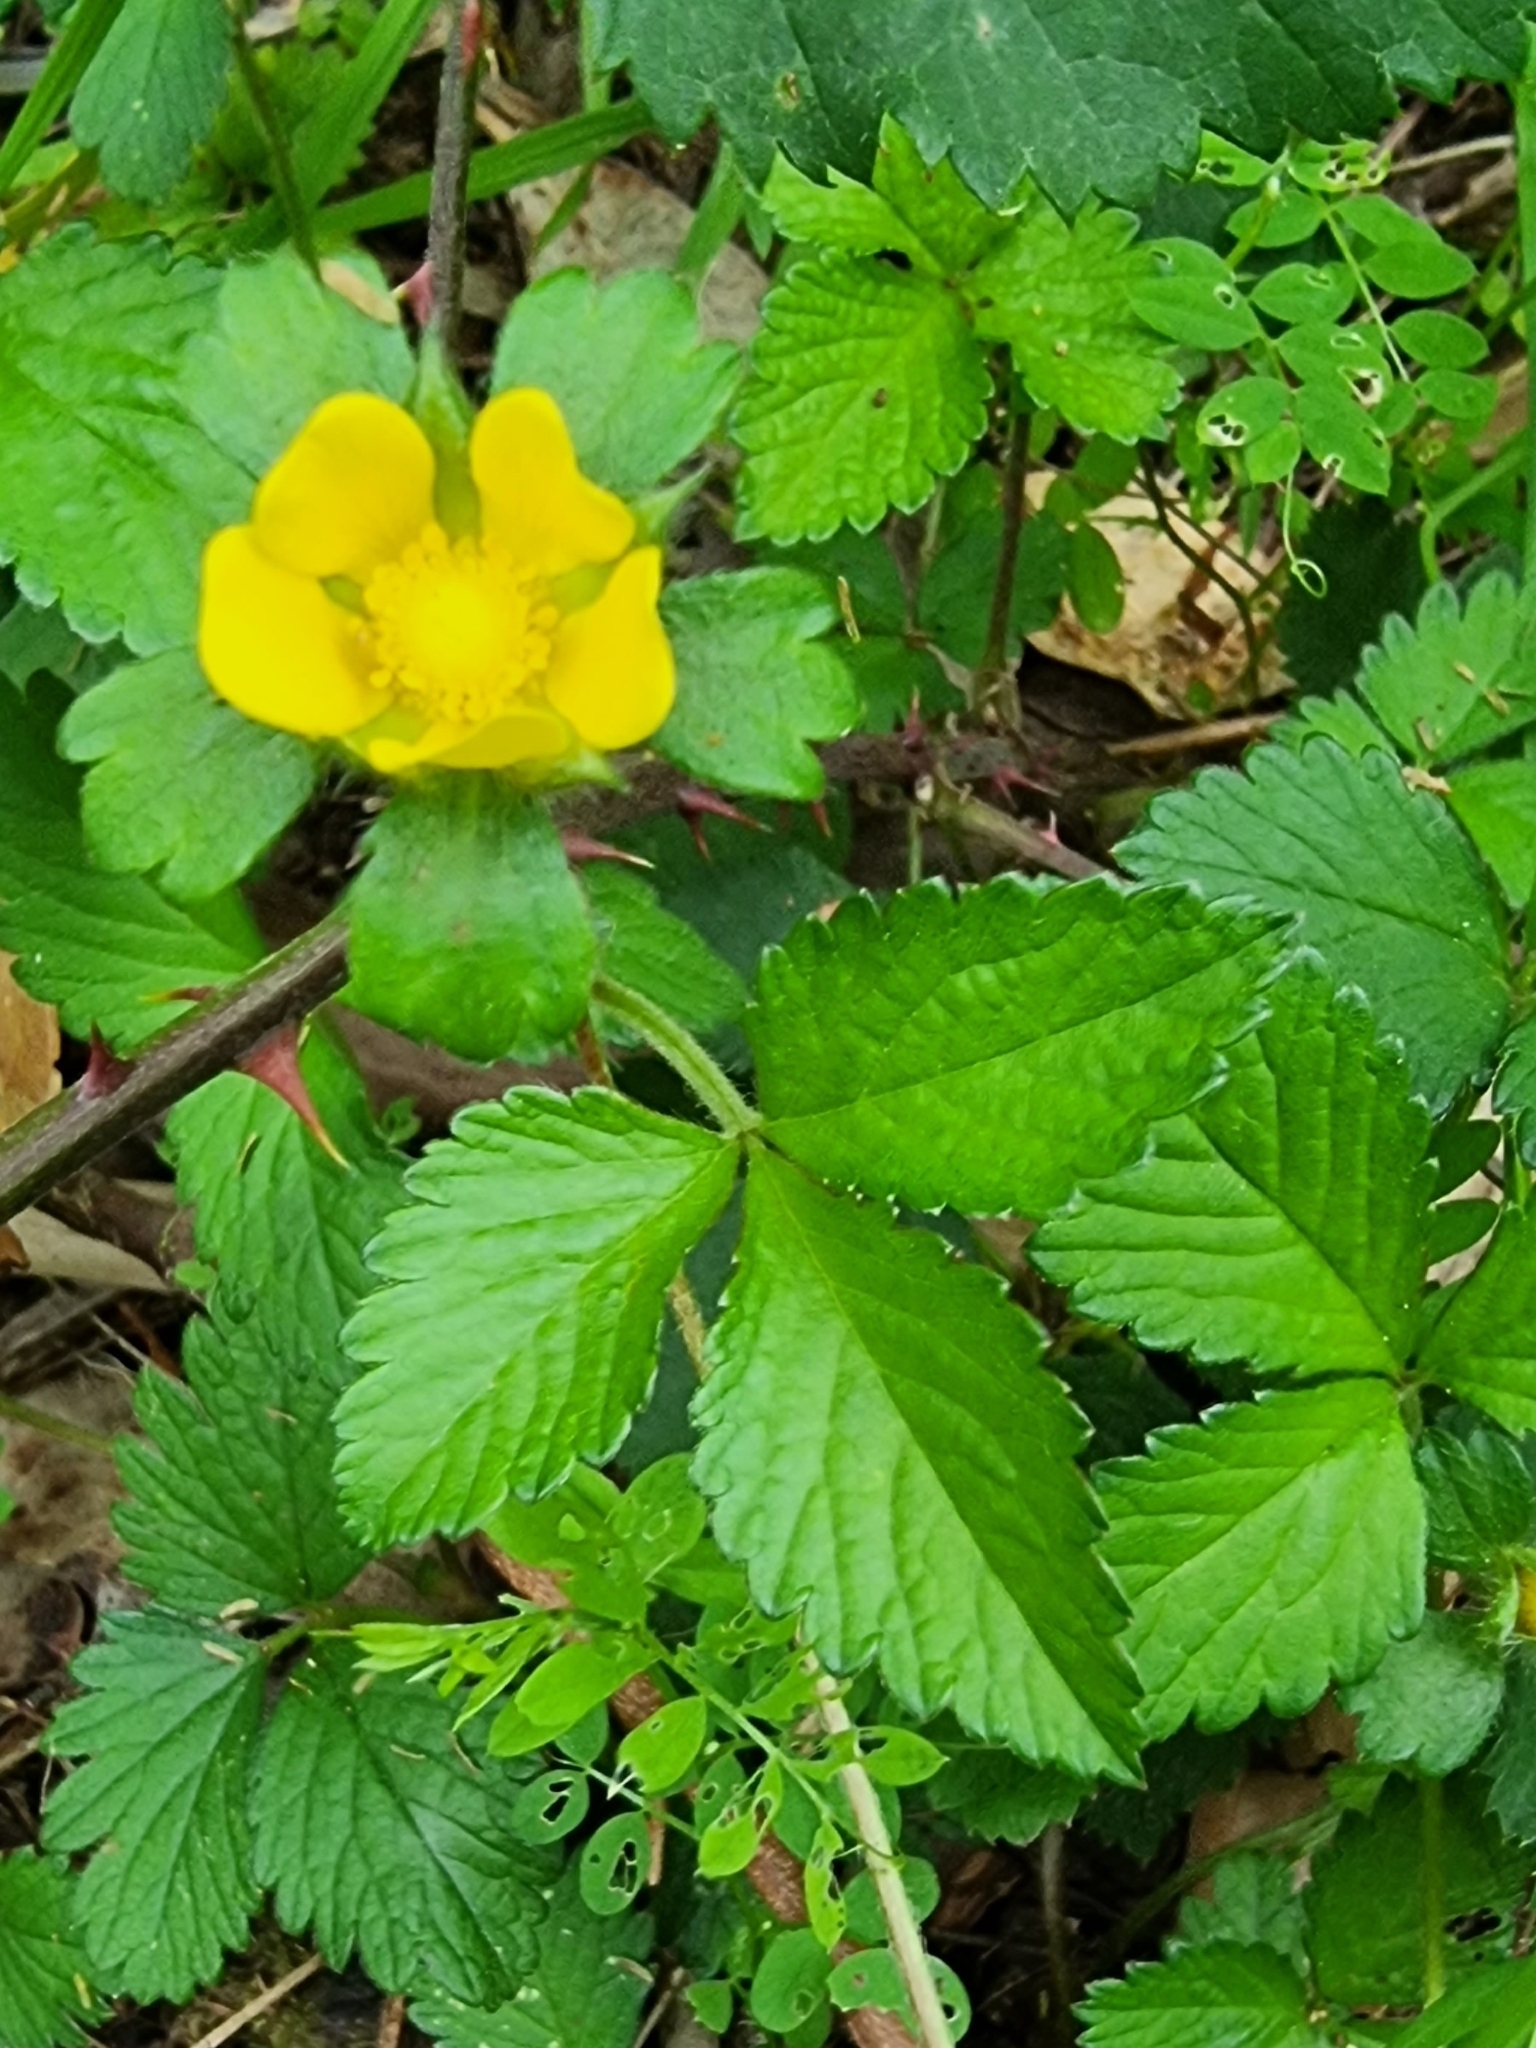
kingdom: Plantae
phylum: Tracheophyta
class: Magnoliopsida
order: Rosales
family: Rosaceae
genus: Potentilla
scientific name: Potentilla indica
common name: Yellow-flowered strawberry
